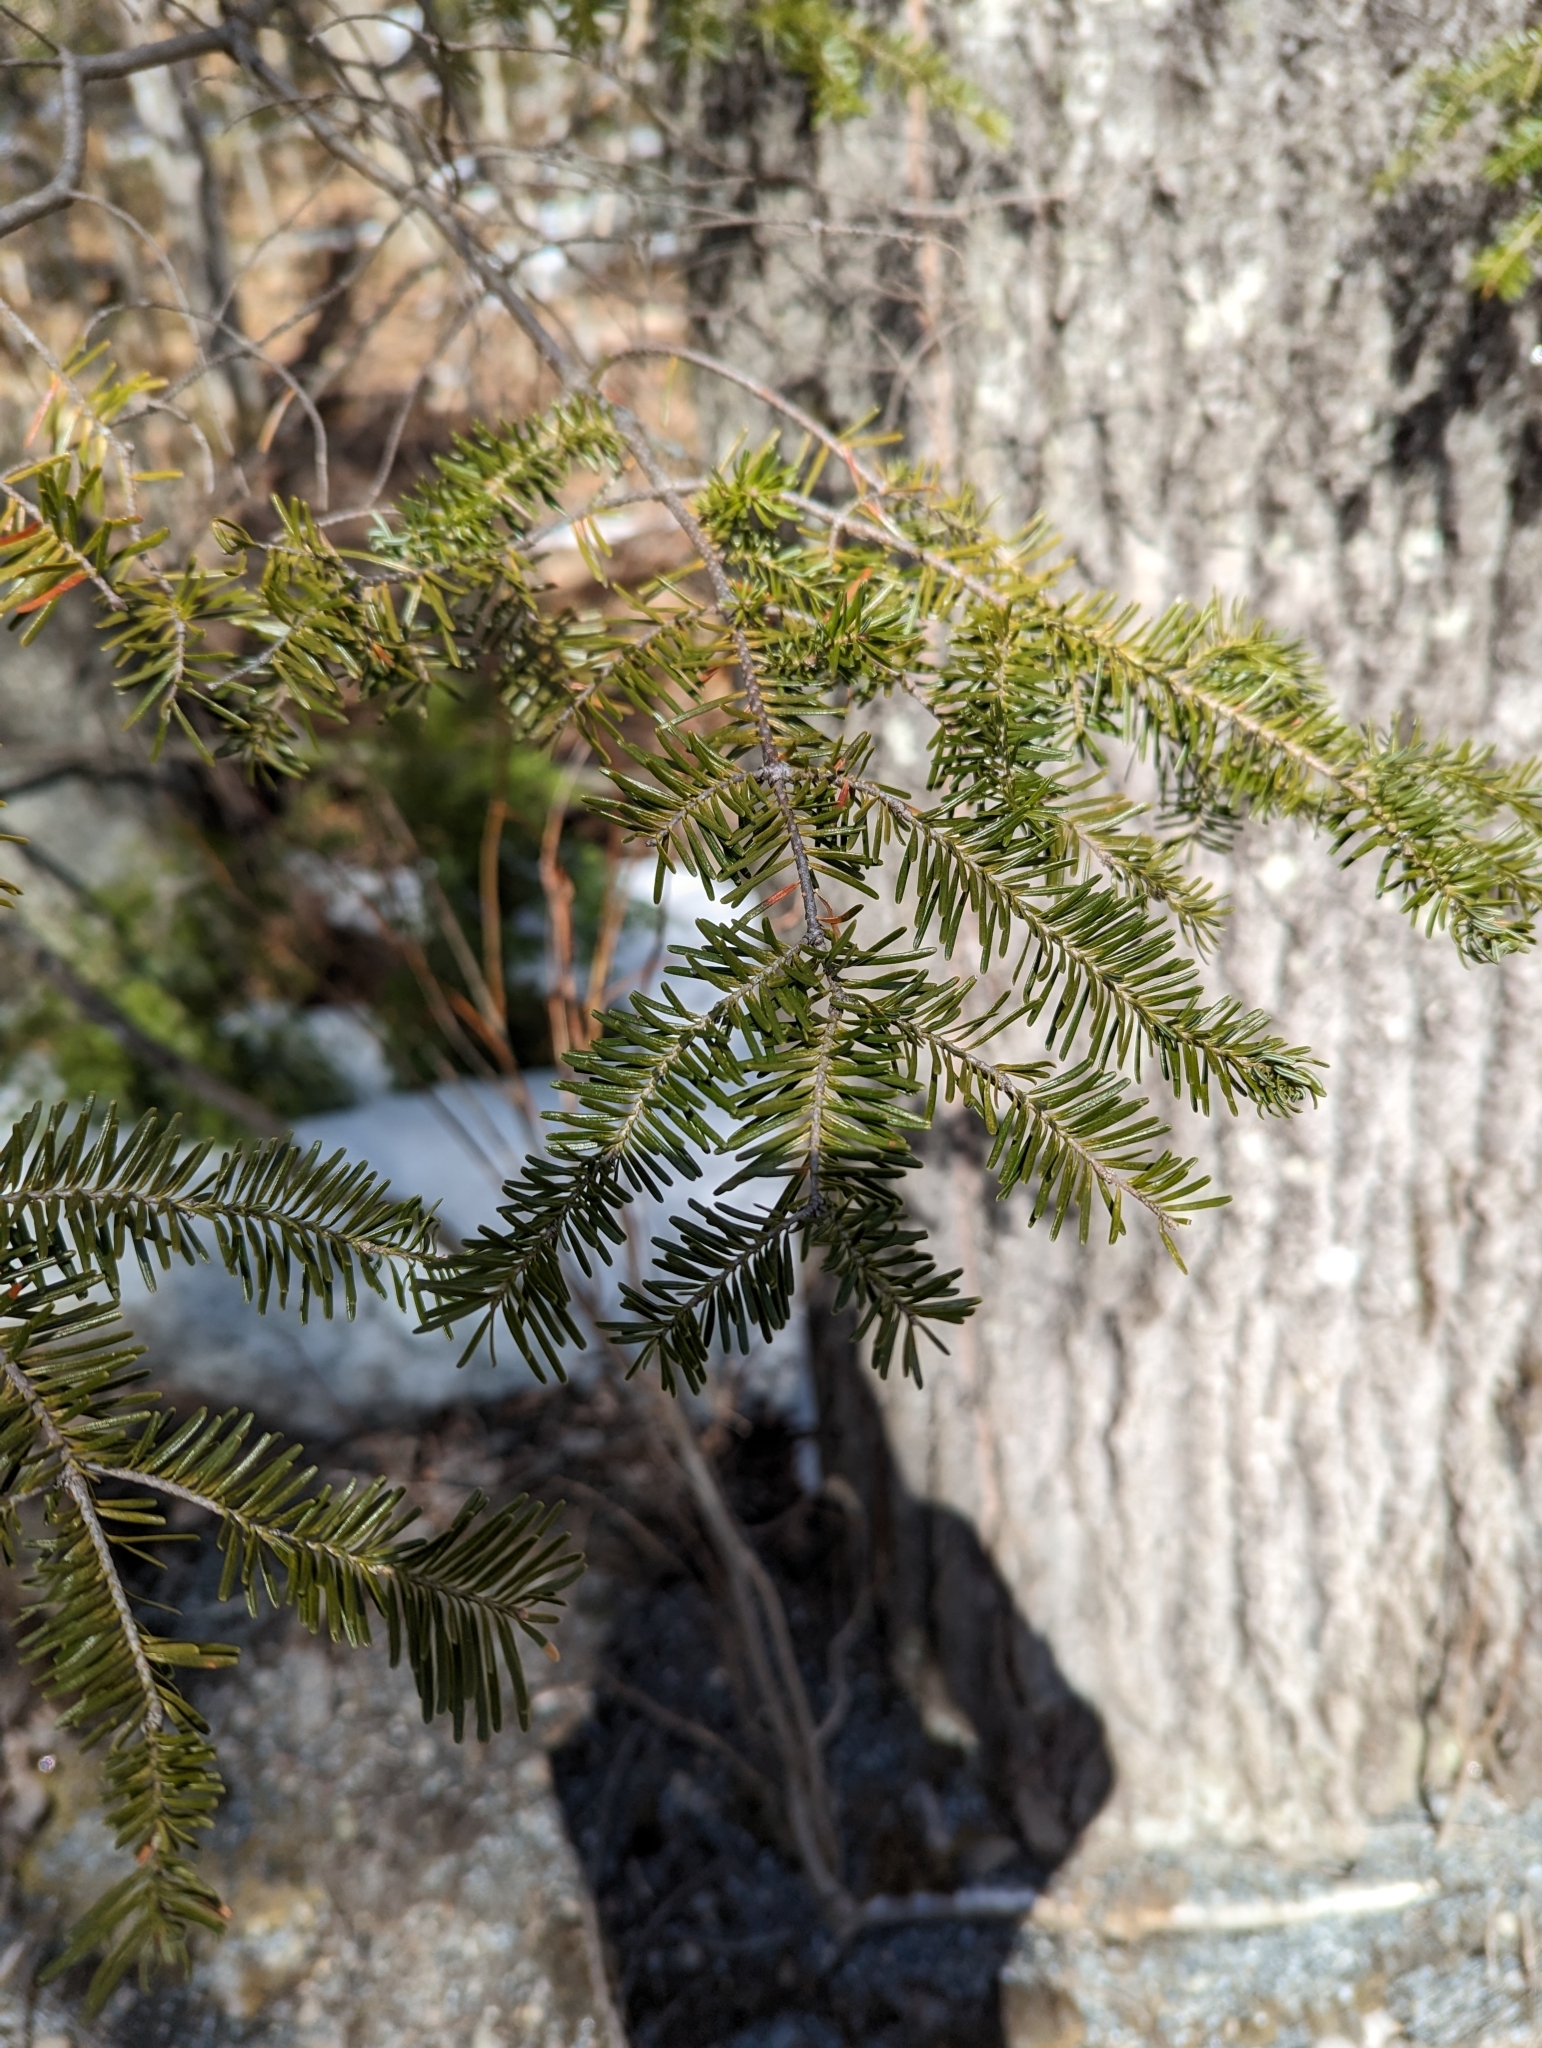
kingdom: Plantae
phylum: Tracheophyta
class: Pinopsida
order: Pinales
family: Pinaceae
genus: Abies
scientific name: Abies balsamea
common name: Balsam fir
